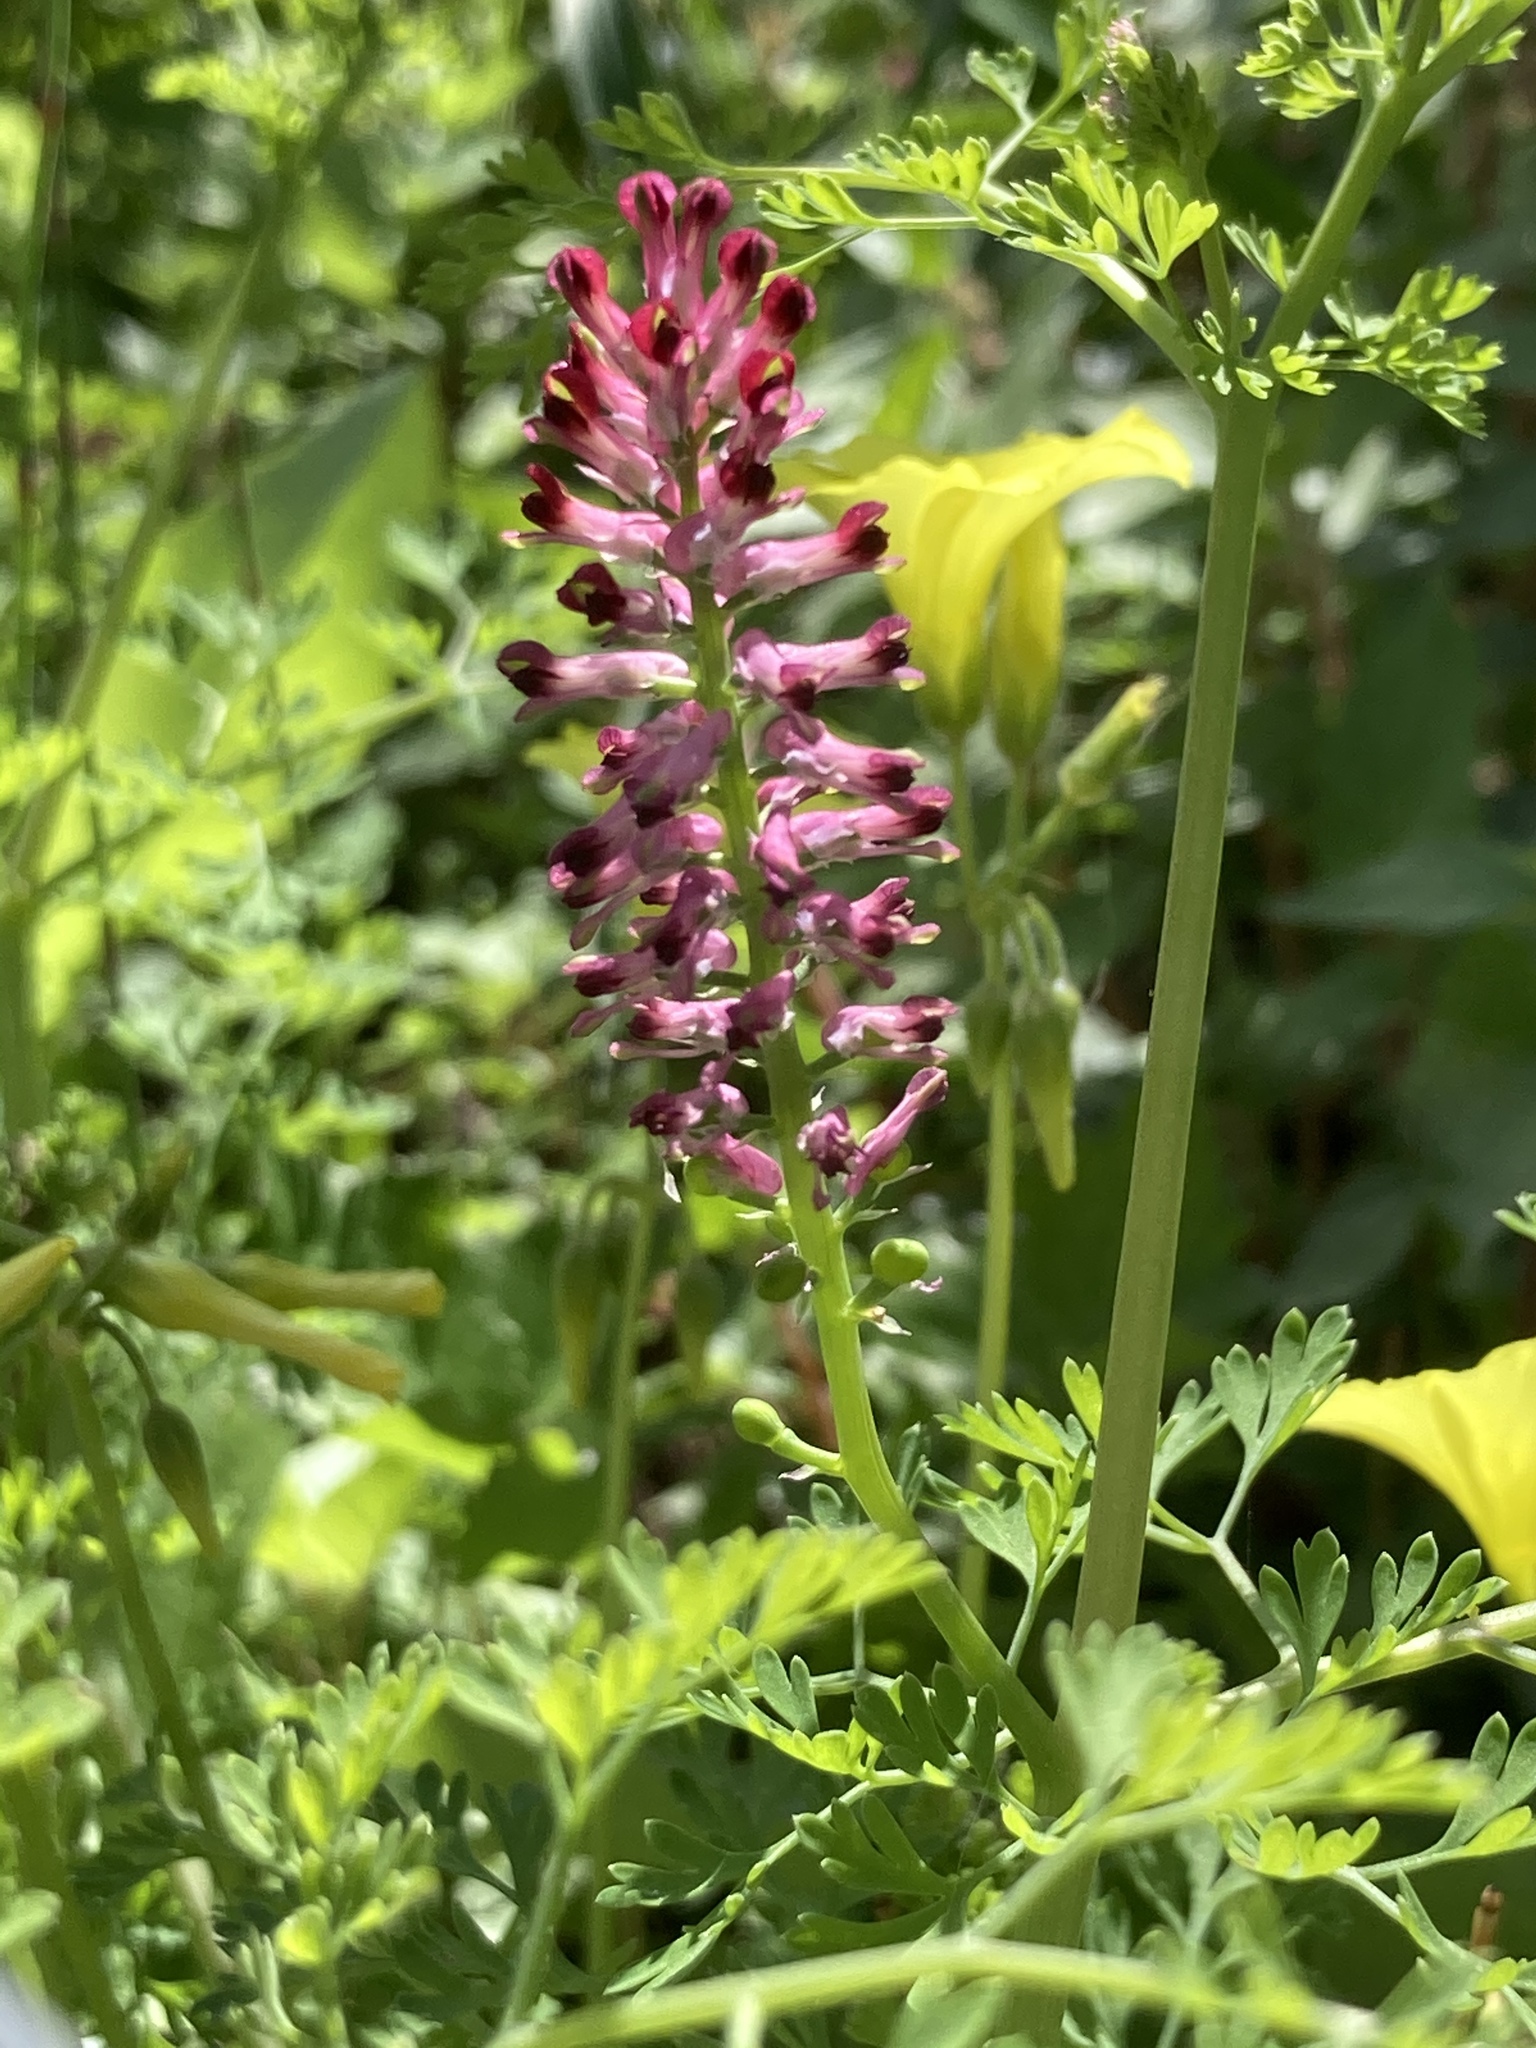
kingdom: Plantae
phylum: Tracheophyta
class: Magnoliopsida
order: Ranunculales
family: Papaveraceae
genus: Fumaria
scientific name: Fumaria officinalis
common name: Common fumitory
